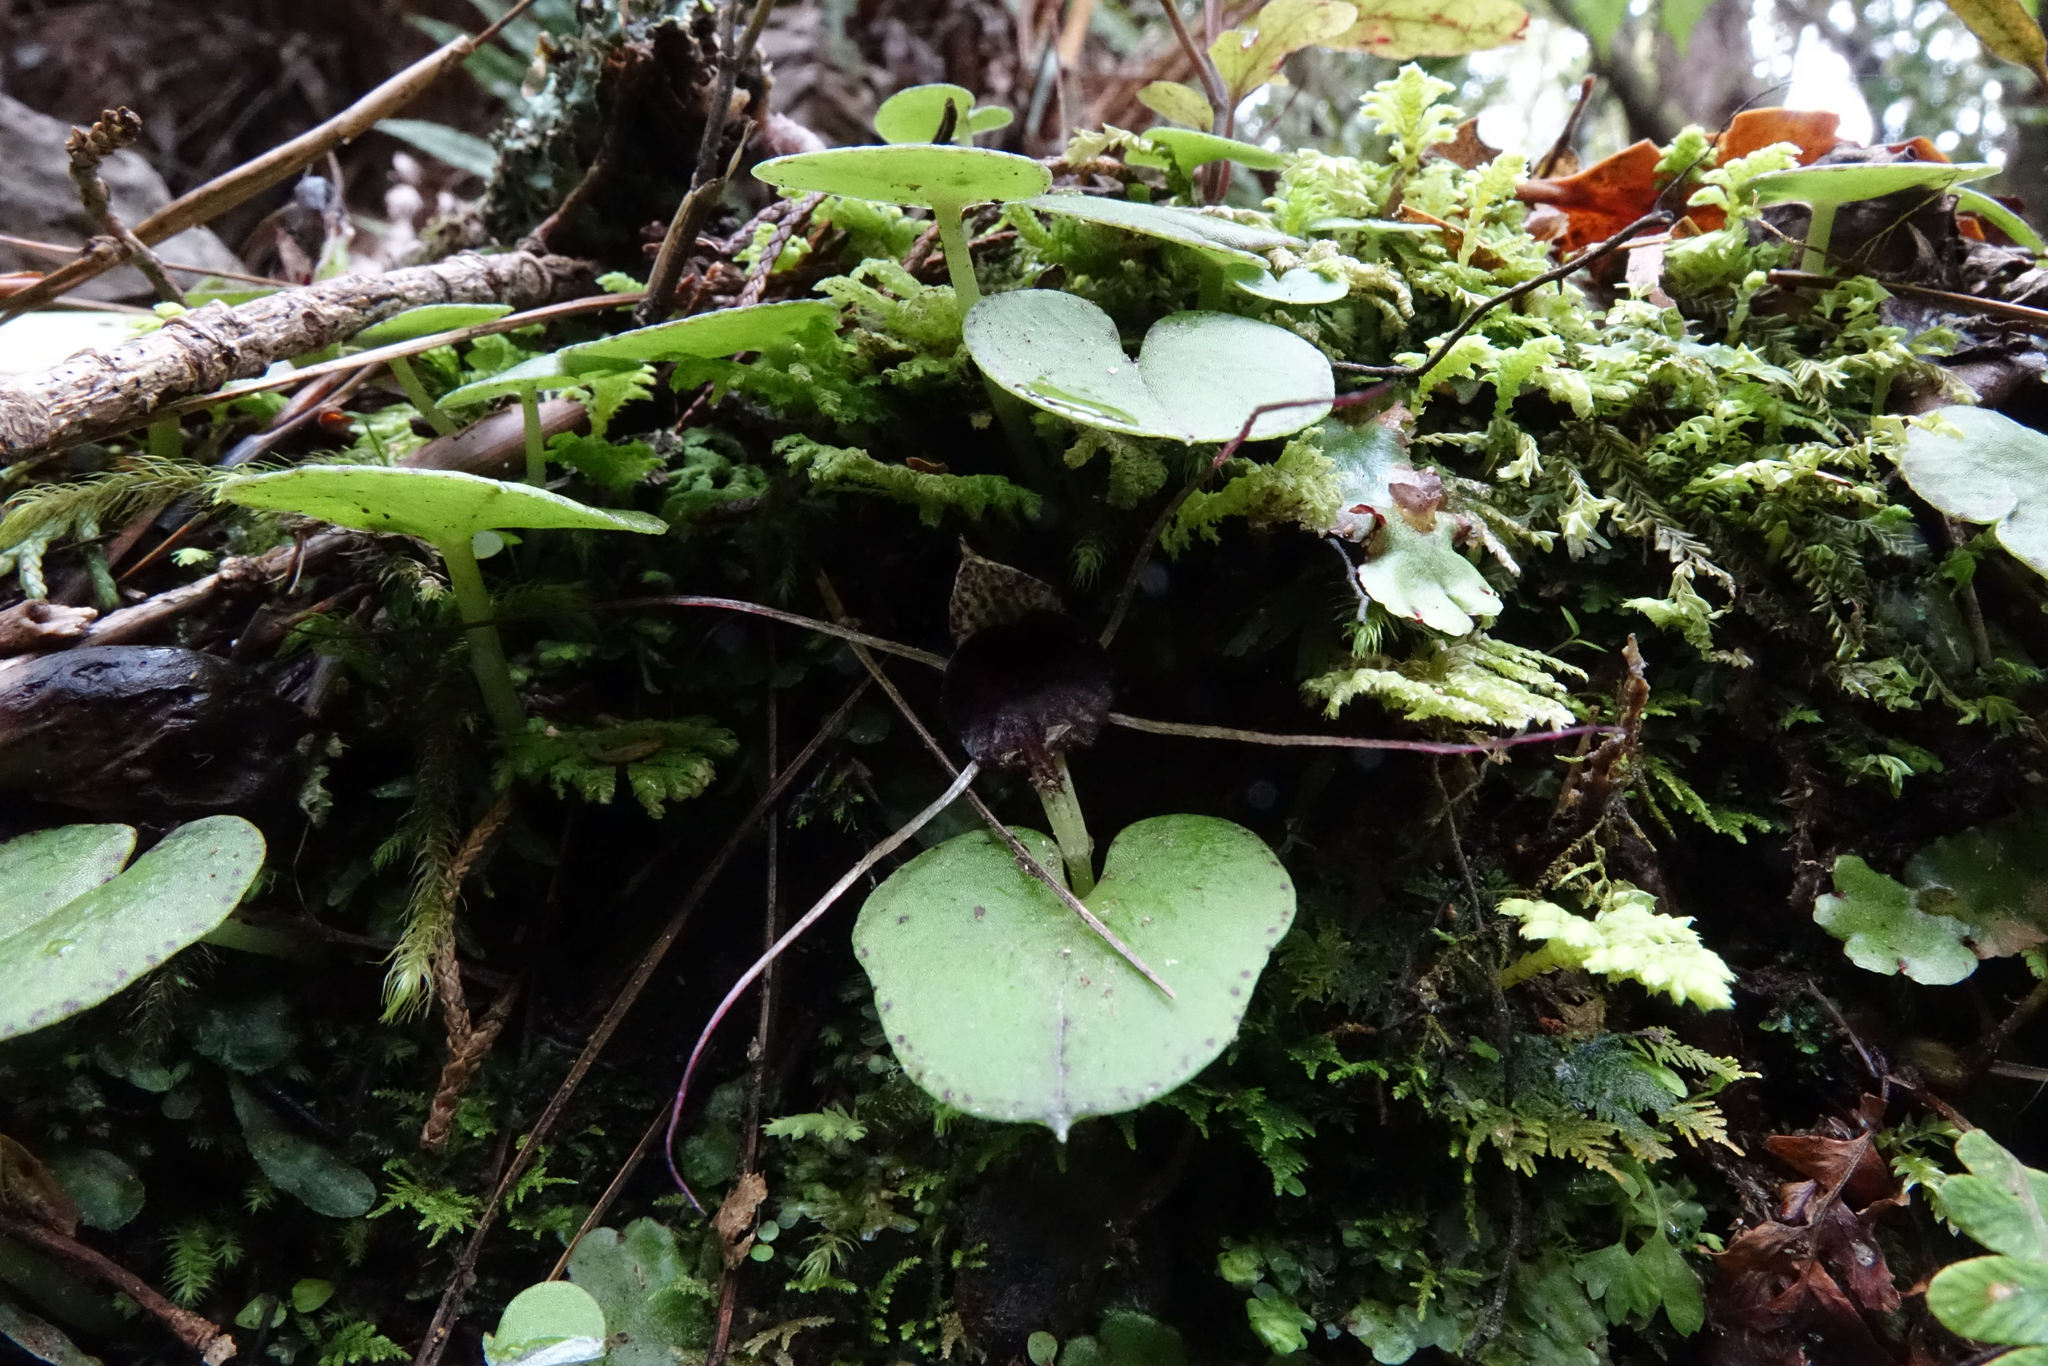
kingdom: Plantae
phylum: Tracheophyta
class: Liliopsida
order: Asparagales
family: Orchidaceae
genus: Corybas
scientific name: Corybas macranthus
